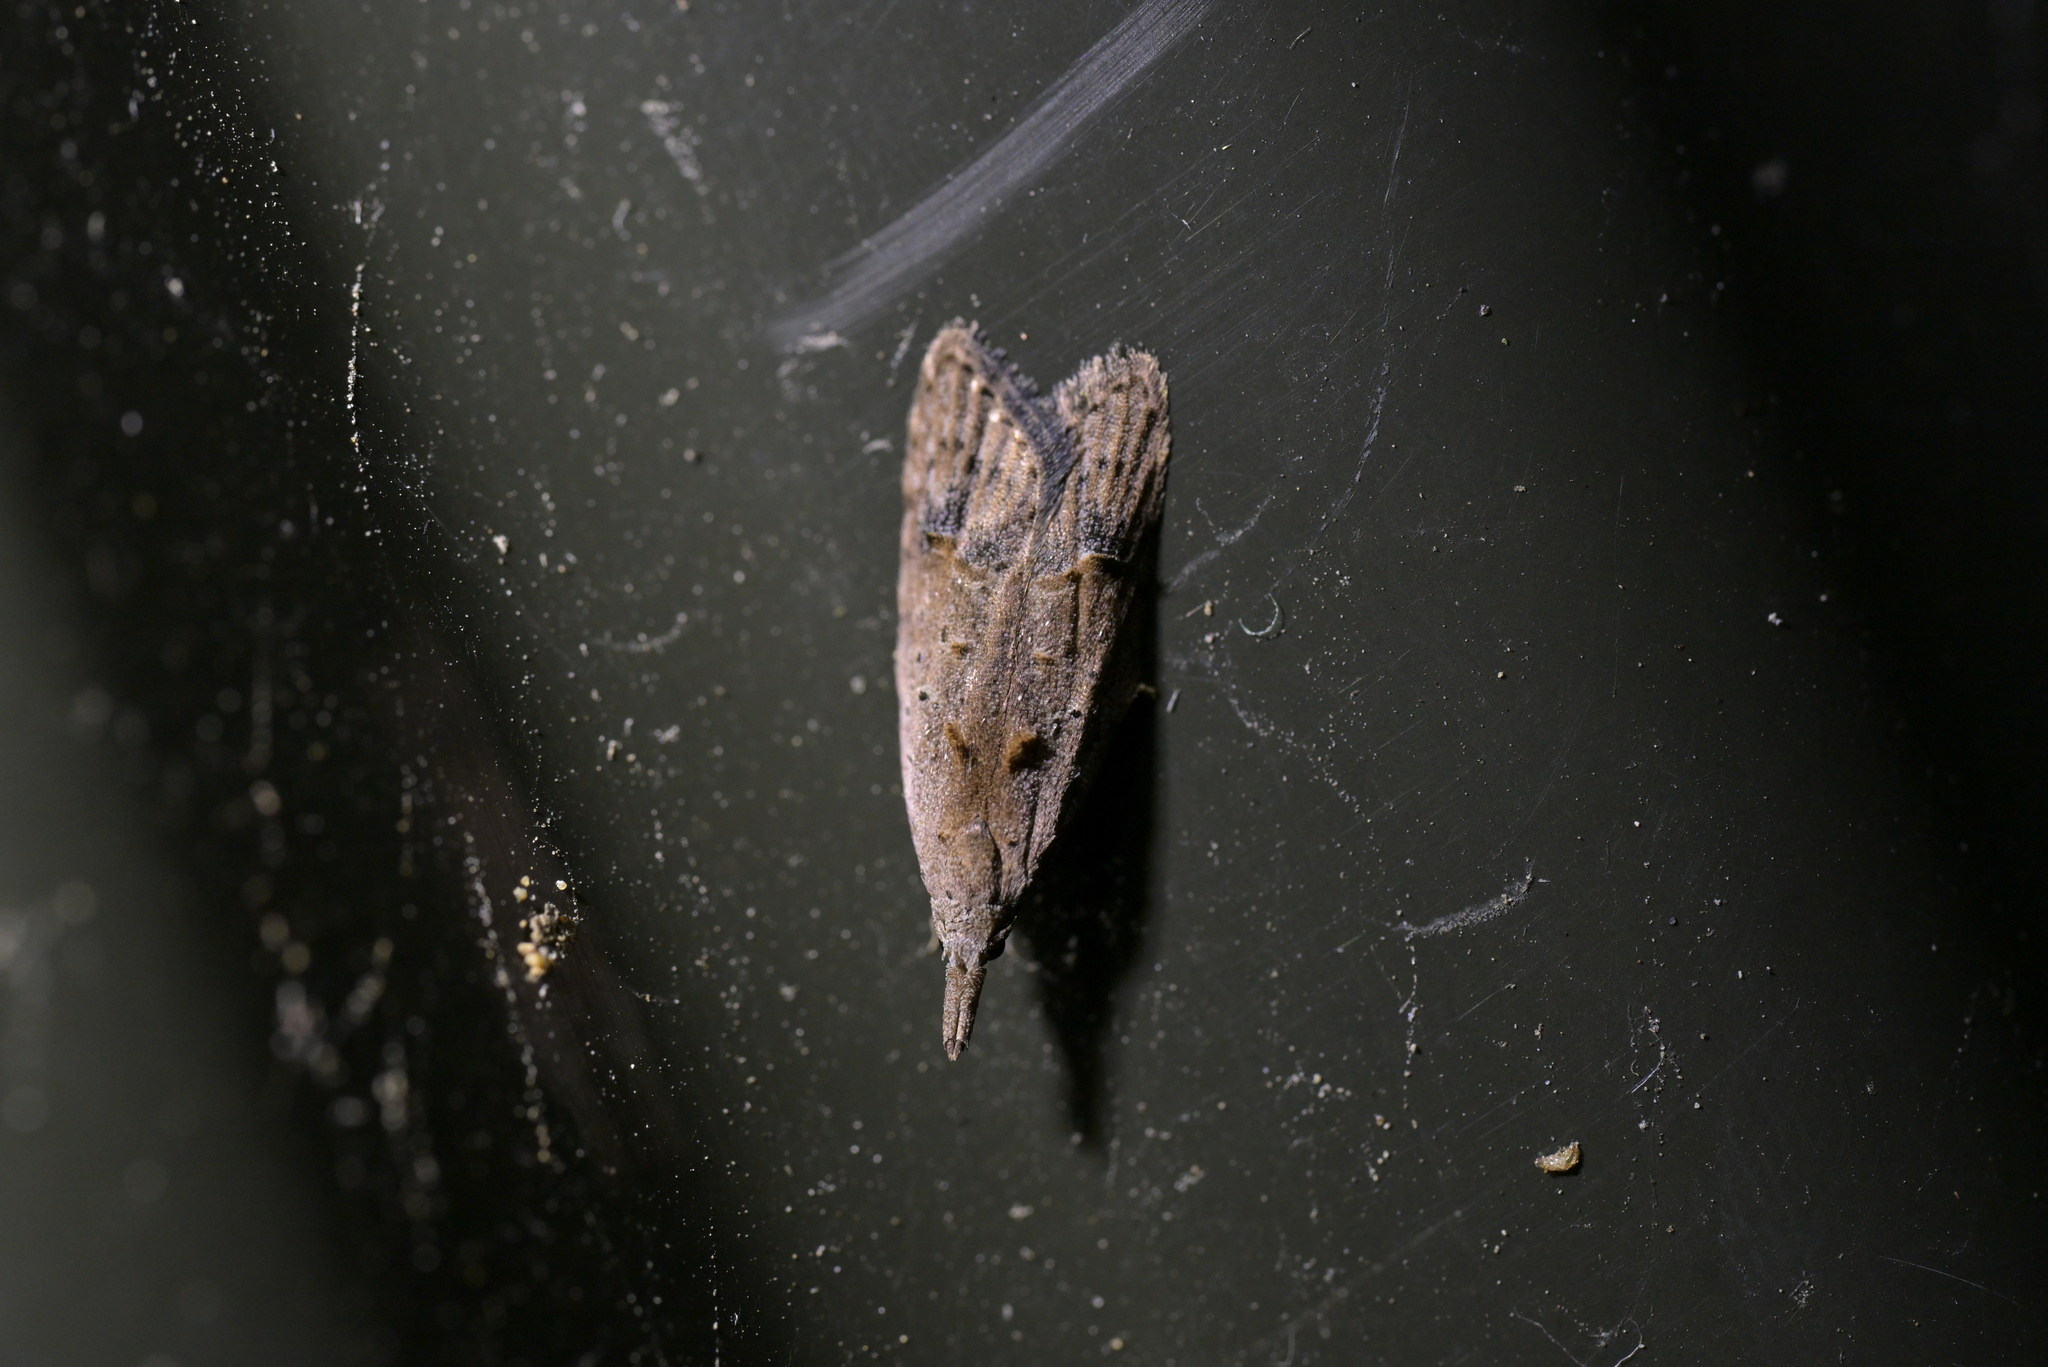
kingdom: Animalia
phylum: Arthropoda
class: Insecta
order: Lepidoptera
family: Carposinidae
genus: Carposina
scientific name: Carposina rubophaga
